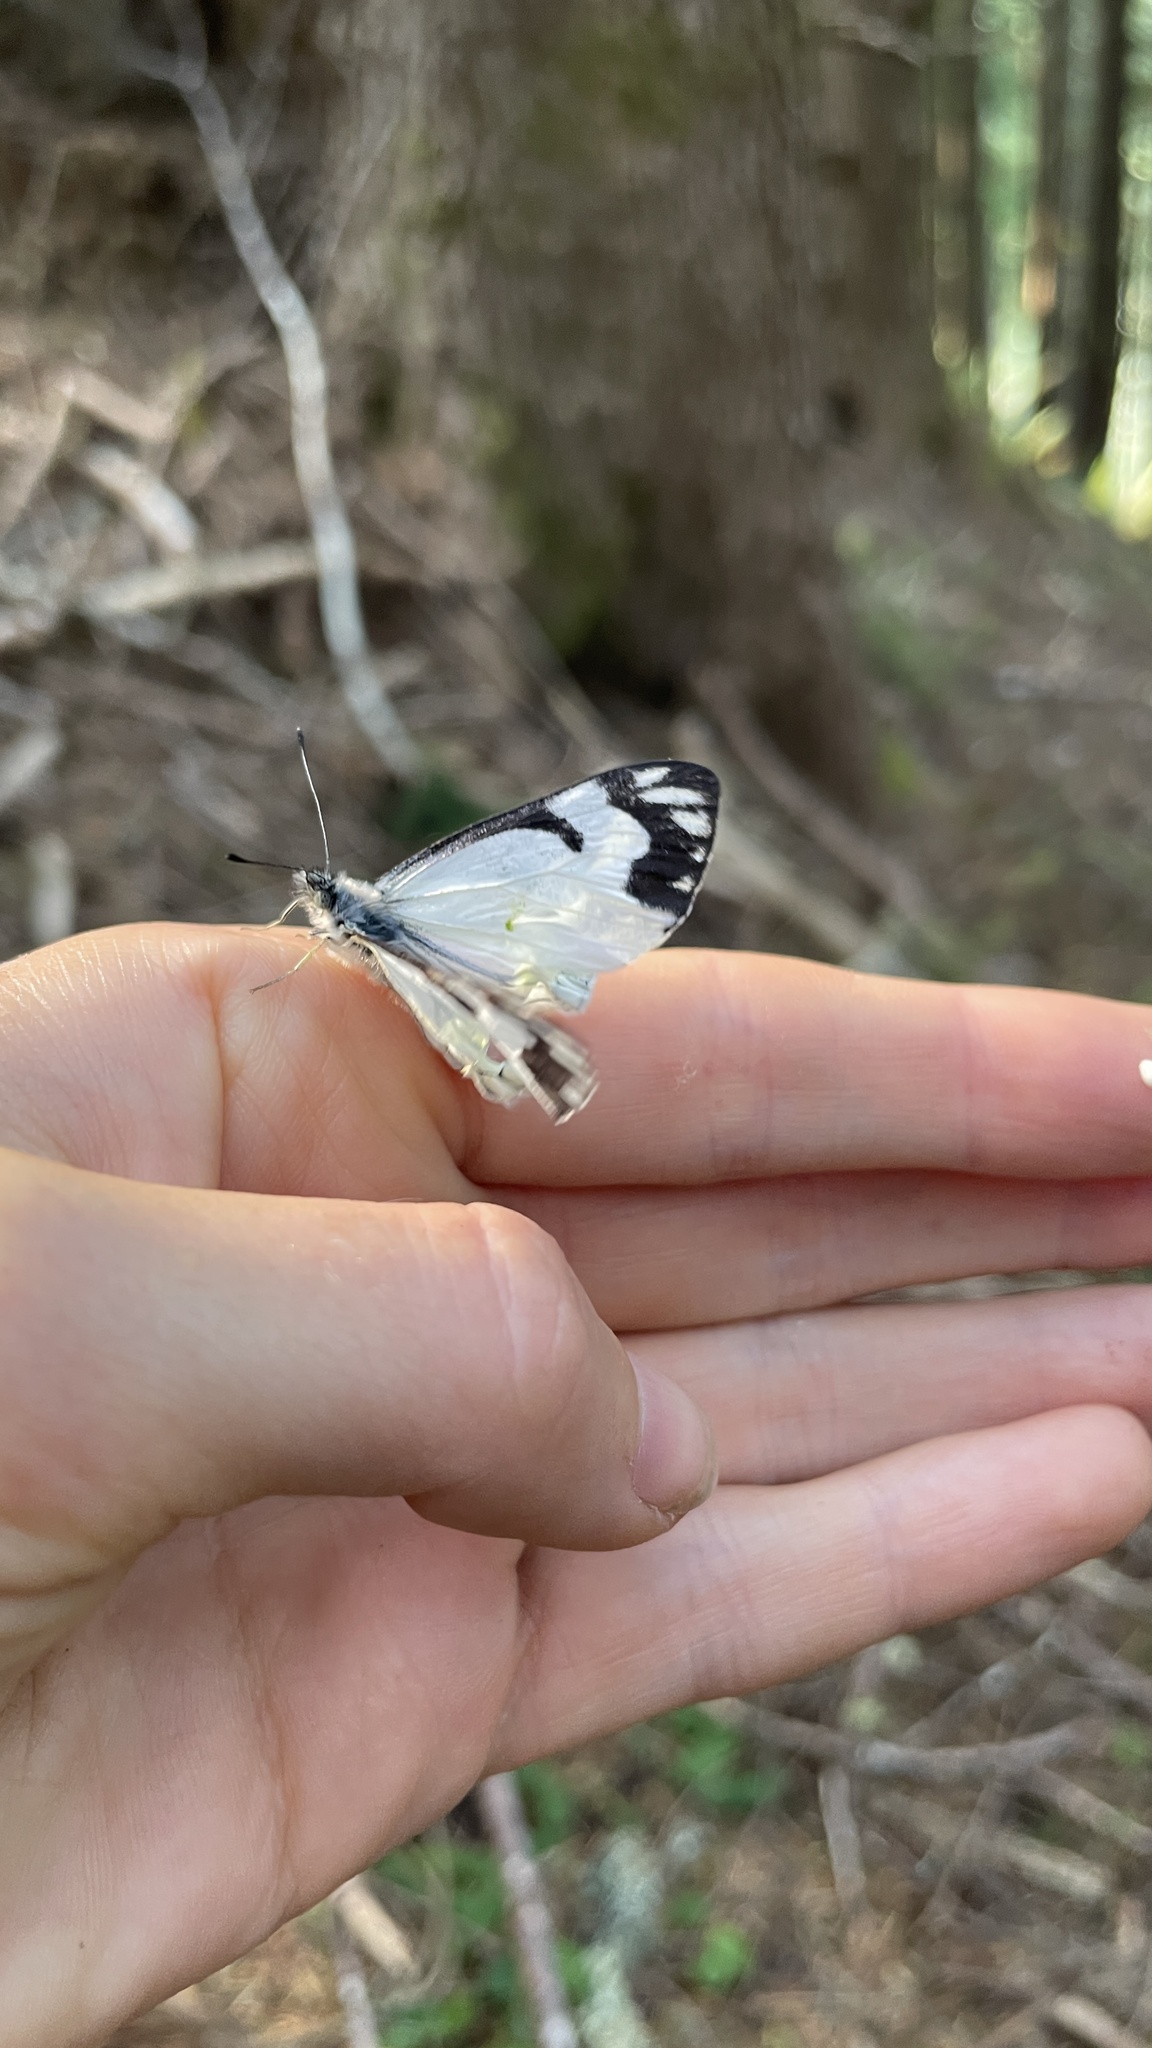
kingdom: Animalia
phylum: Arthropoda
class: Insecta
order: Lepidoptera
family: Pieridae
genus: Neophasia
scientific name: Neophasia menapia
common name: Pine white
